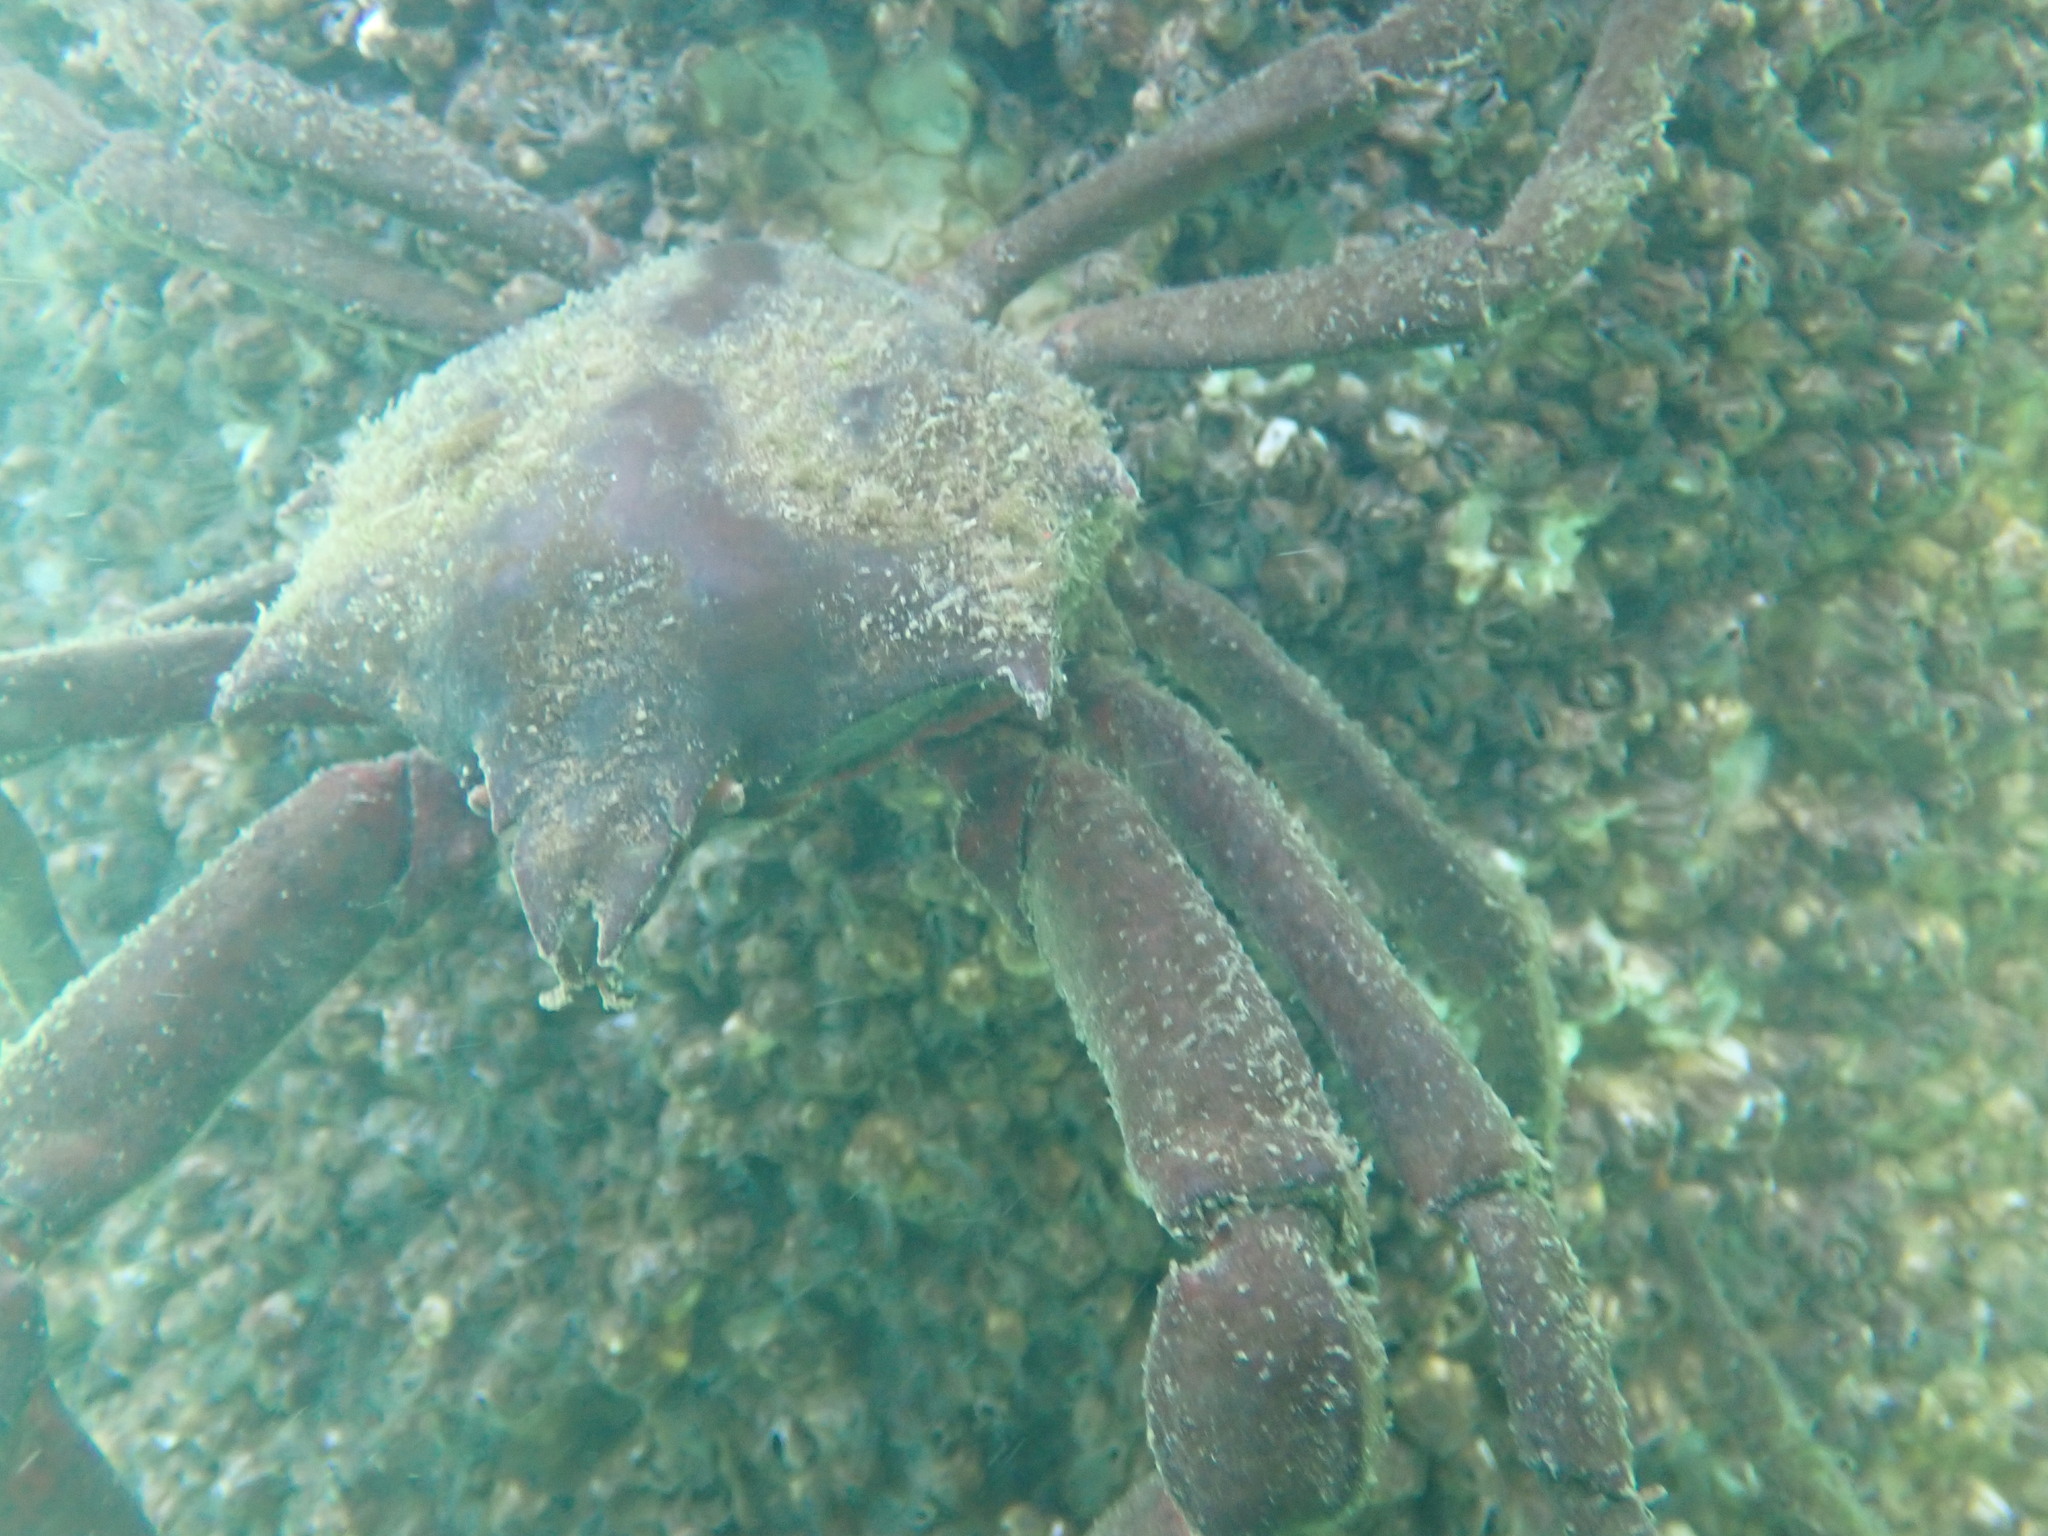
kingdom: Animalia
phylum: Arthropoda
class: Malacostraca
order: Decapoda
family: Epialtidae
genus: Pugettia
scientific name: Pugettia producta
